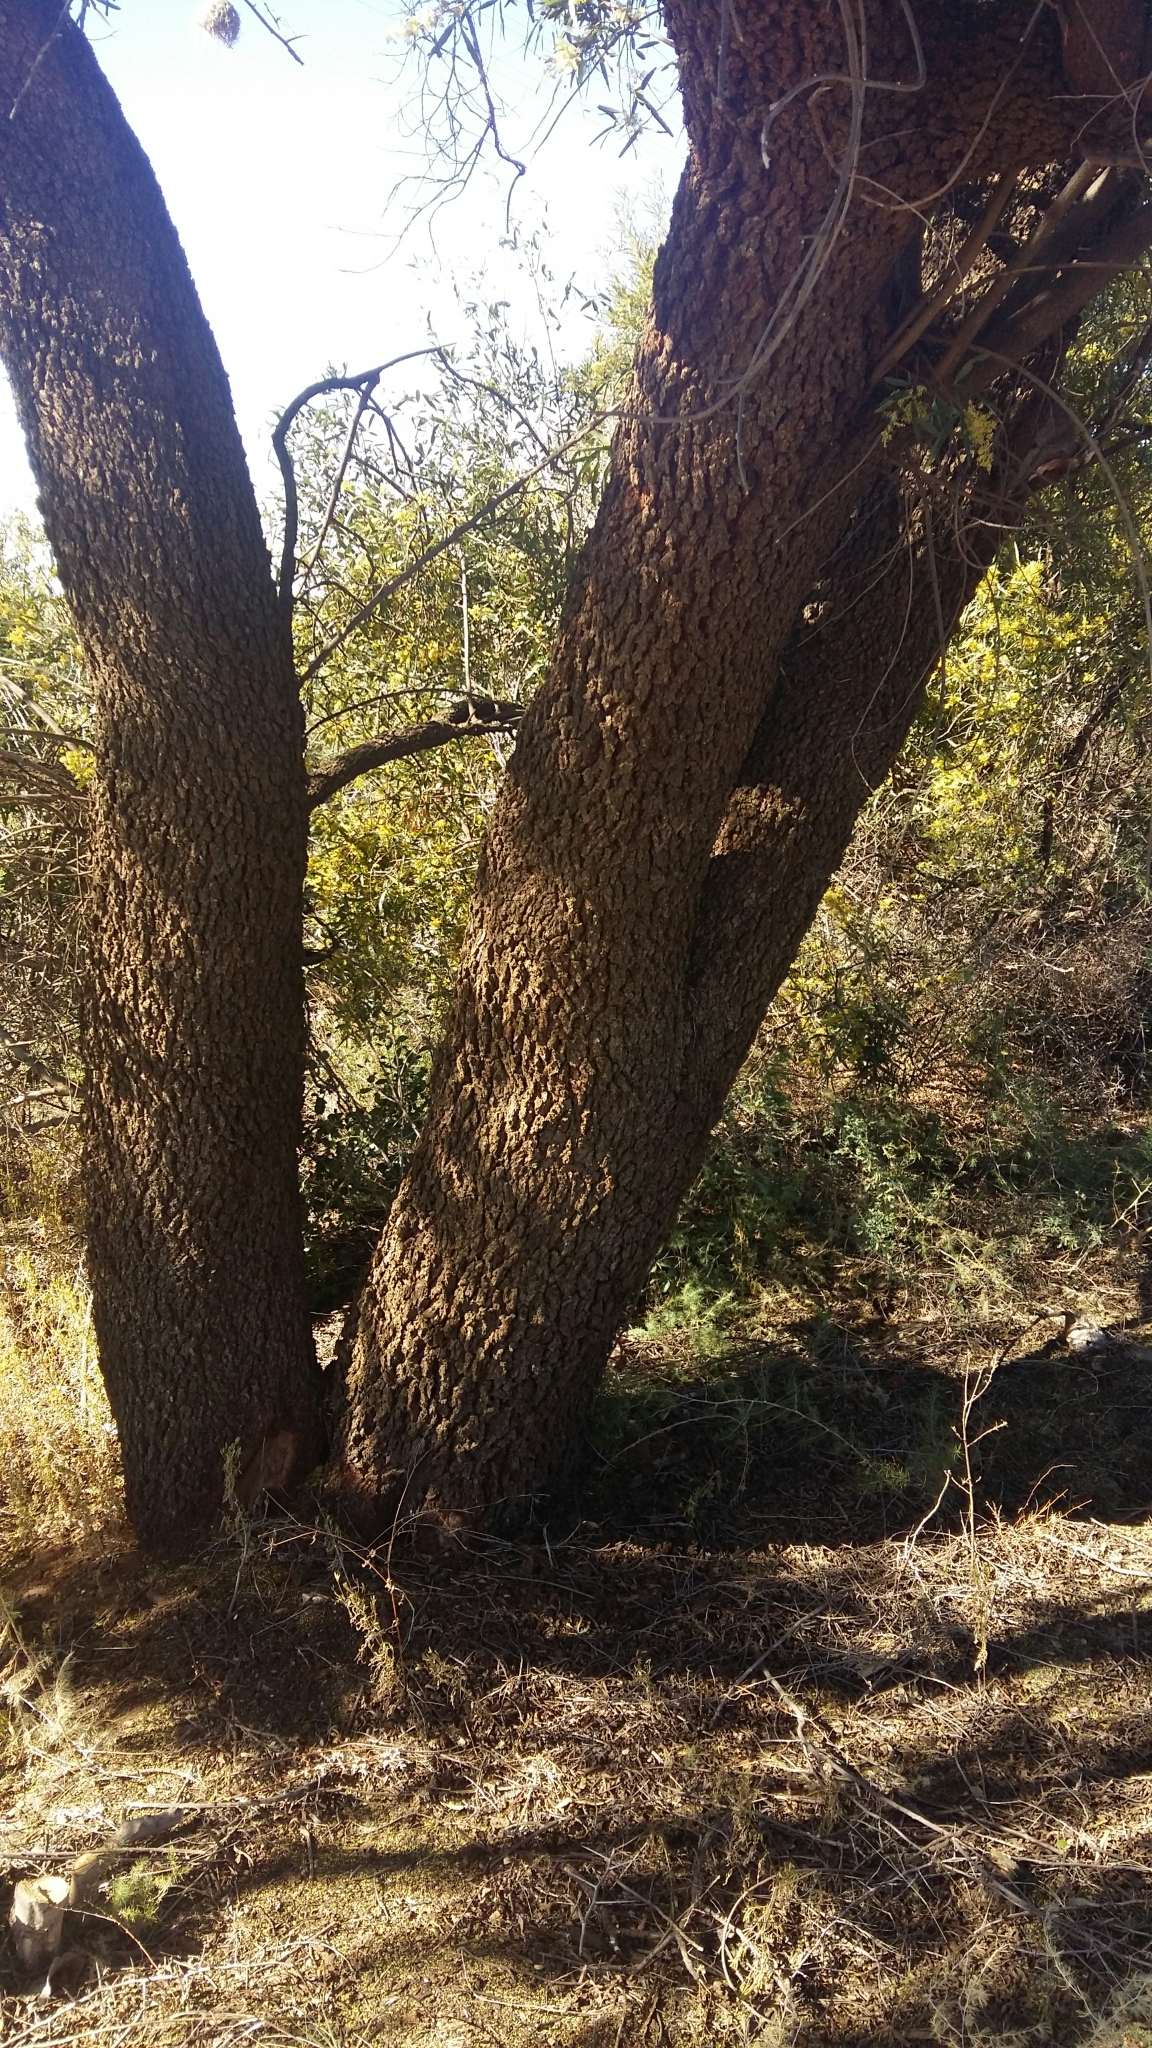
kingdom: Plantae
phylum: Tracheophyta
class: Magnoliopsida
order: Sapindales
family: Anacardiaceae
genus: Searsia
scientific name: Searsia lancea
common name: Cashew
